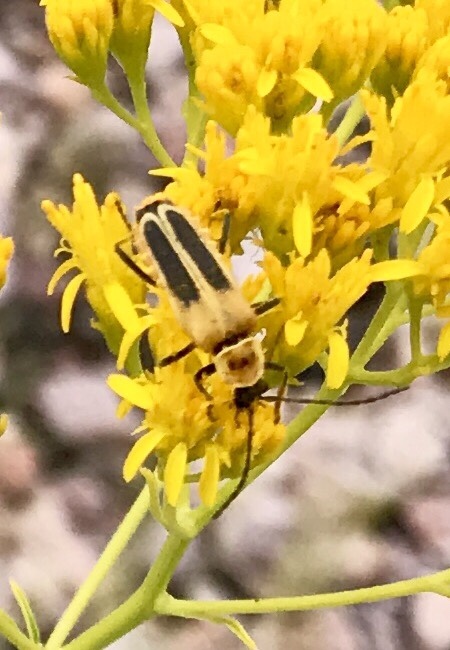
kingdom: Animalia
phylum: Arthropoda
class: Insecta
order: Coleoptera
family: Cantharidae
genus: Chauliognathus
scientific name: Chauliognathus lewisi
